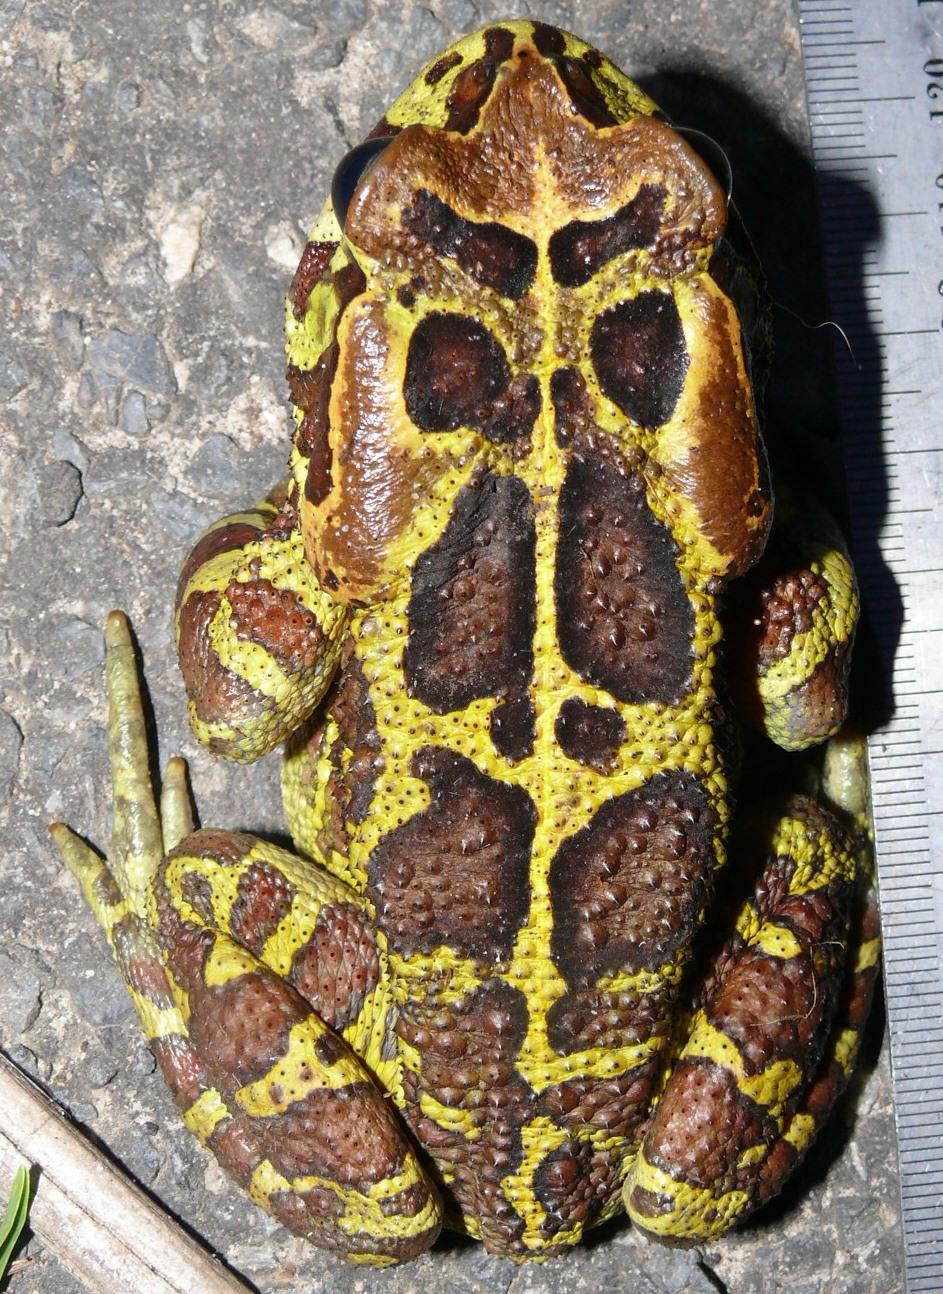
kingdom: Animalia
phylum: Chordata
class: Amphibia
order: Anura
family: Bufonidae
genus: Sclerophrys
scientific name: Sclerophrys pantherina
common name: Panther toad
